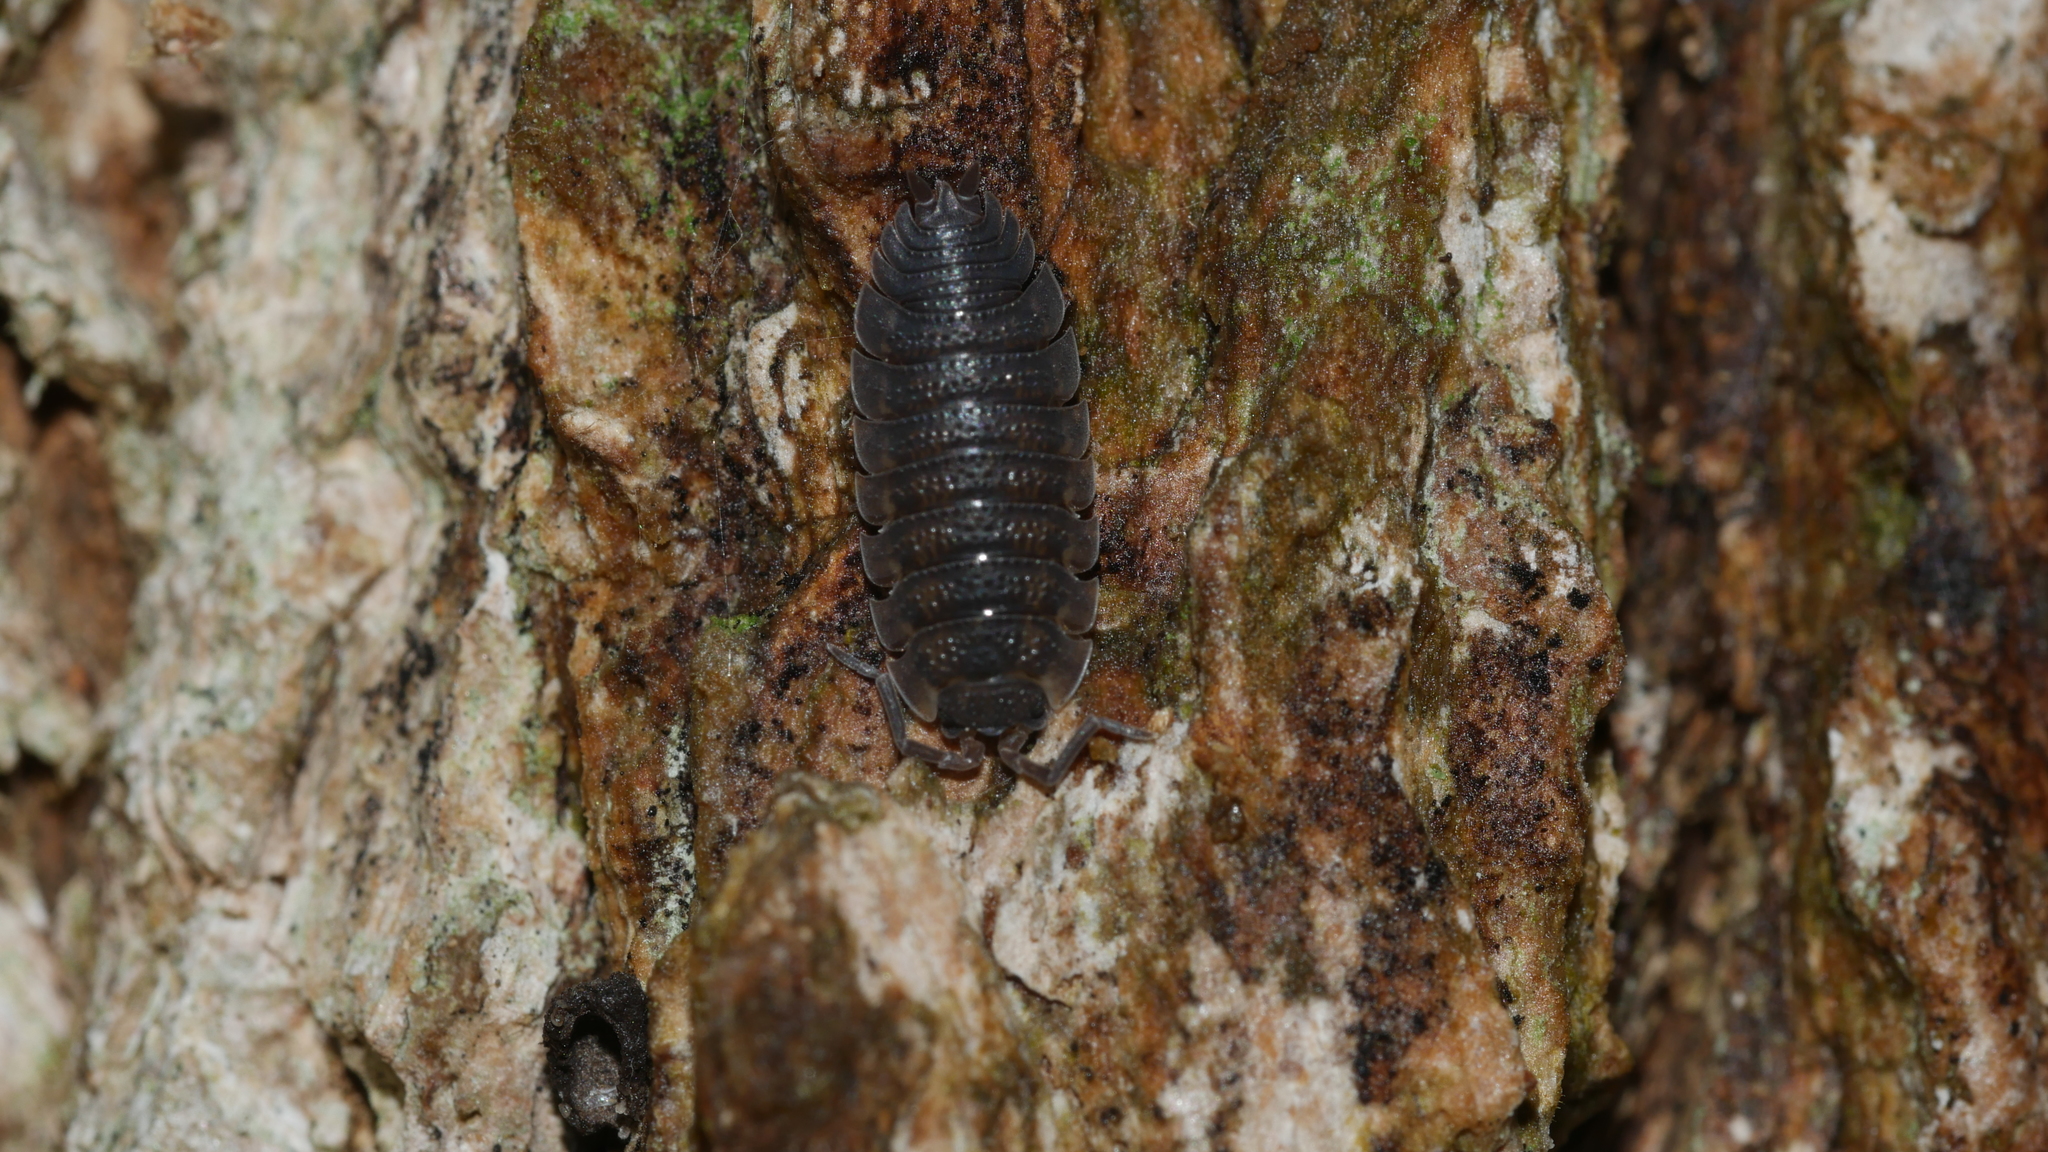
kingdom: Animalia
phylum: Arthropoda
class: Malacostraca
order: Isopoda
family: Porcellionidae
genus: Porcellio
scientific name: Porcellio scaber
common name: Common rough woodlouse
